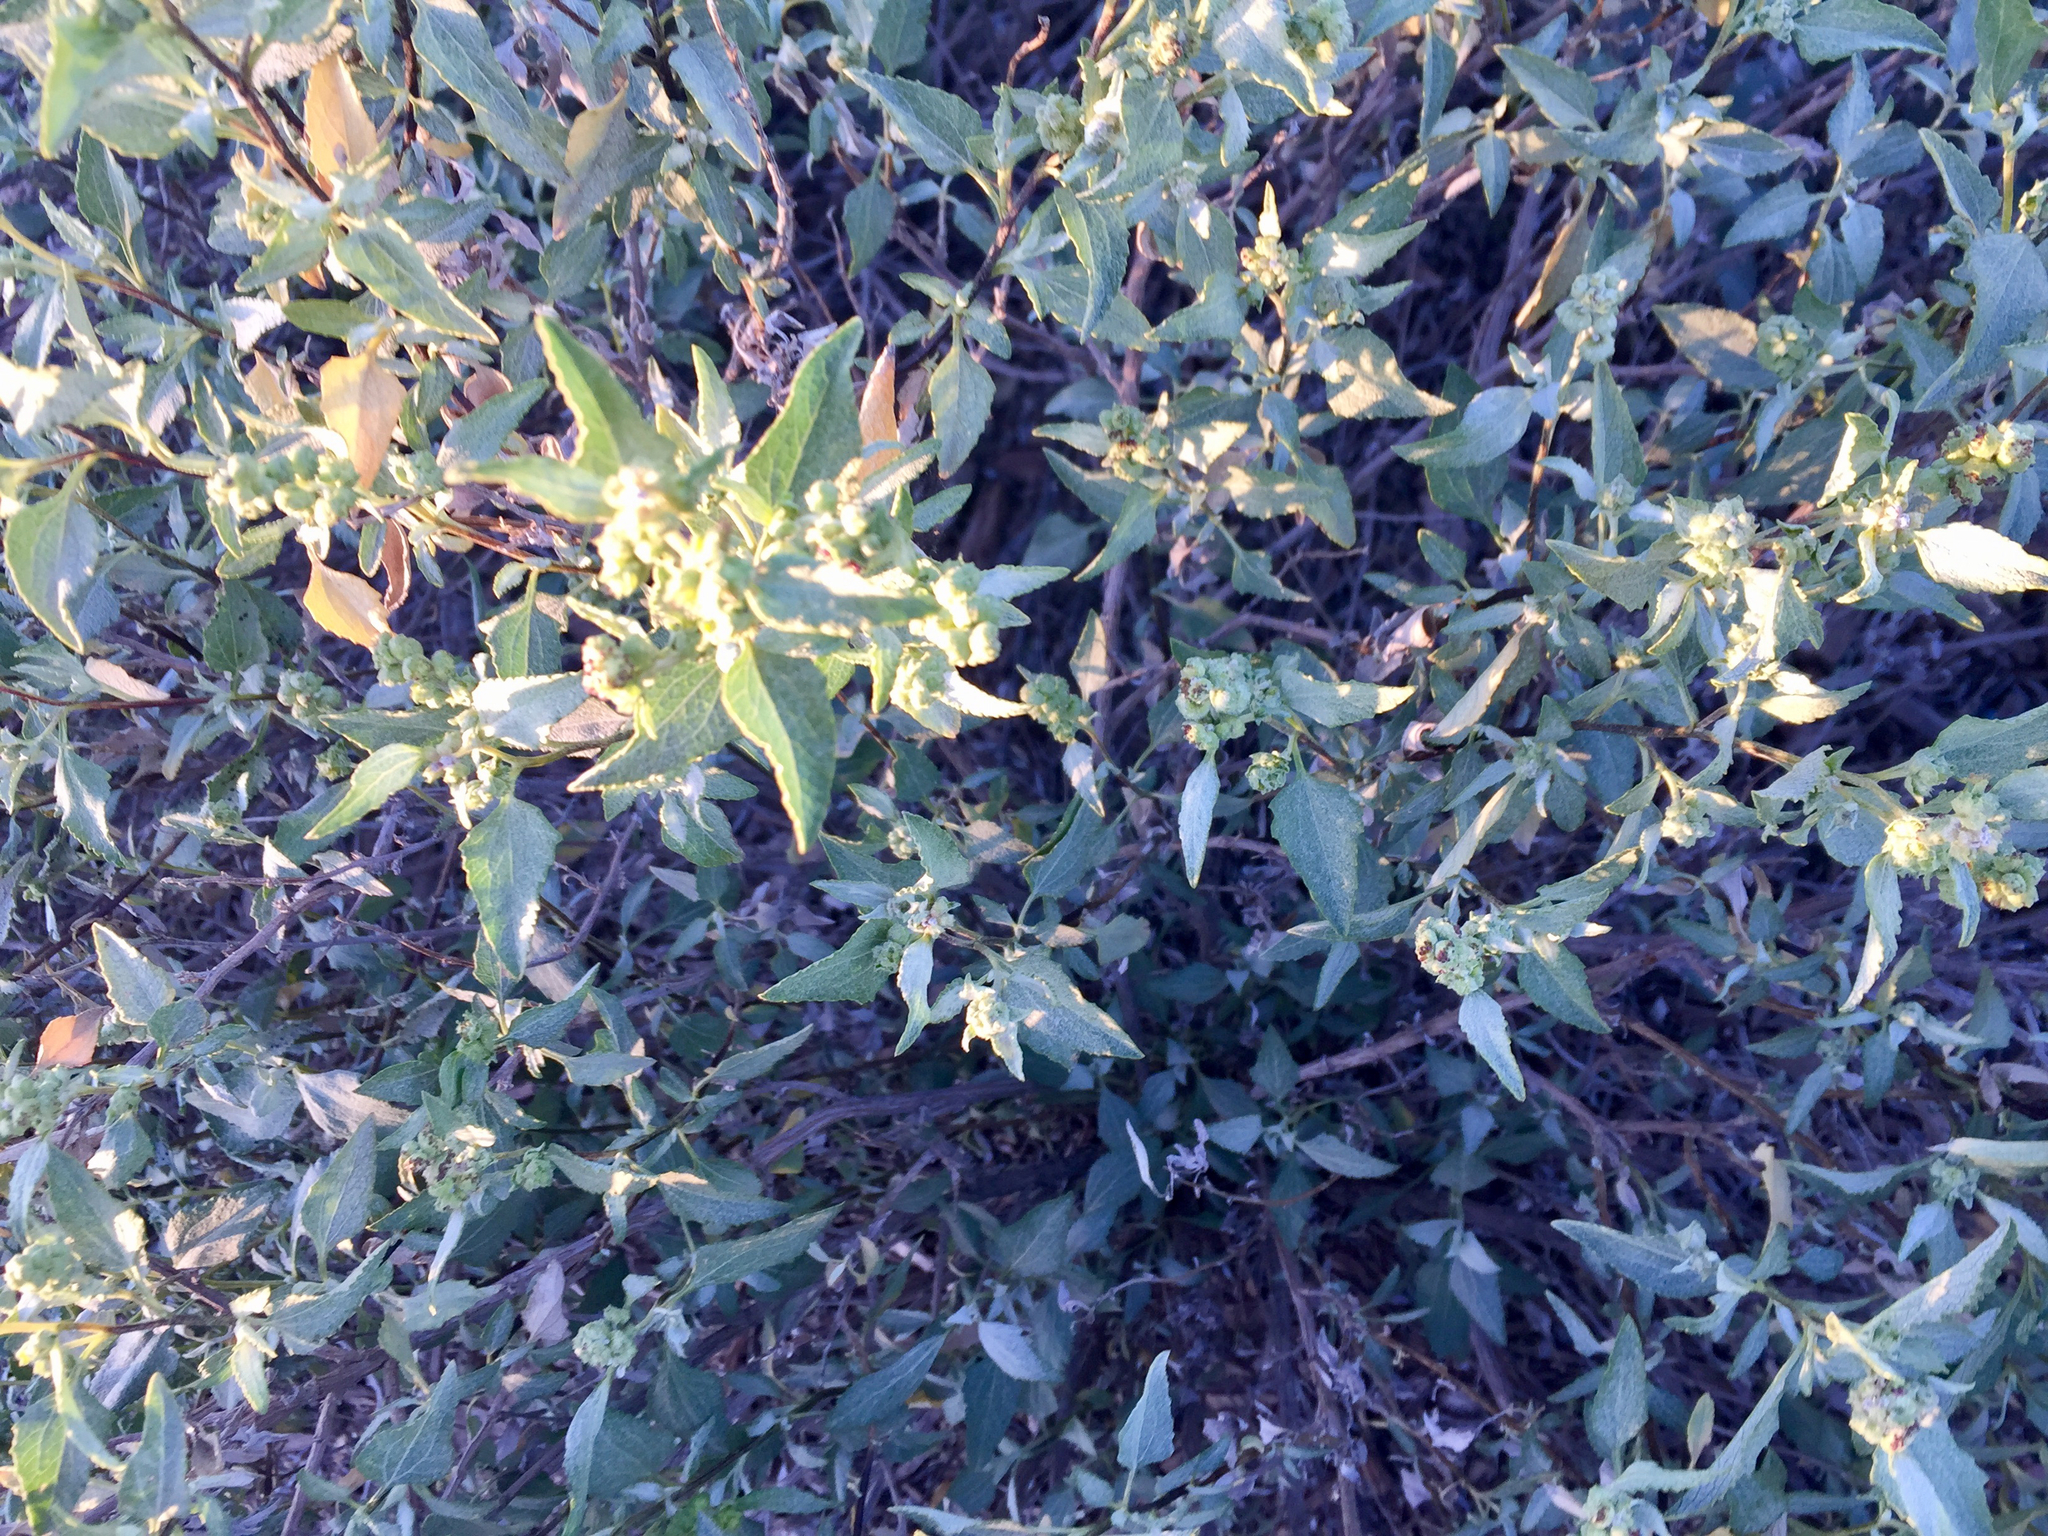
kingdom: Plantae
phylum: Tracheophyta
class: Magnoliopsida
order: Asterales
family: Asteraceae
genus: Ambrosia
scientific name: Ambrosia deltoidea
